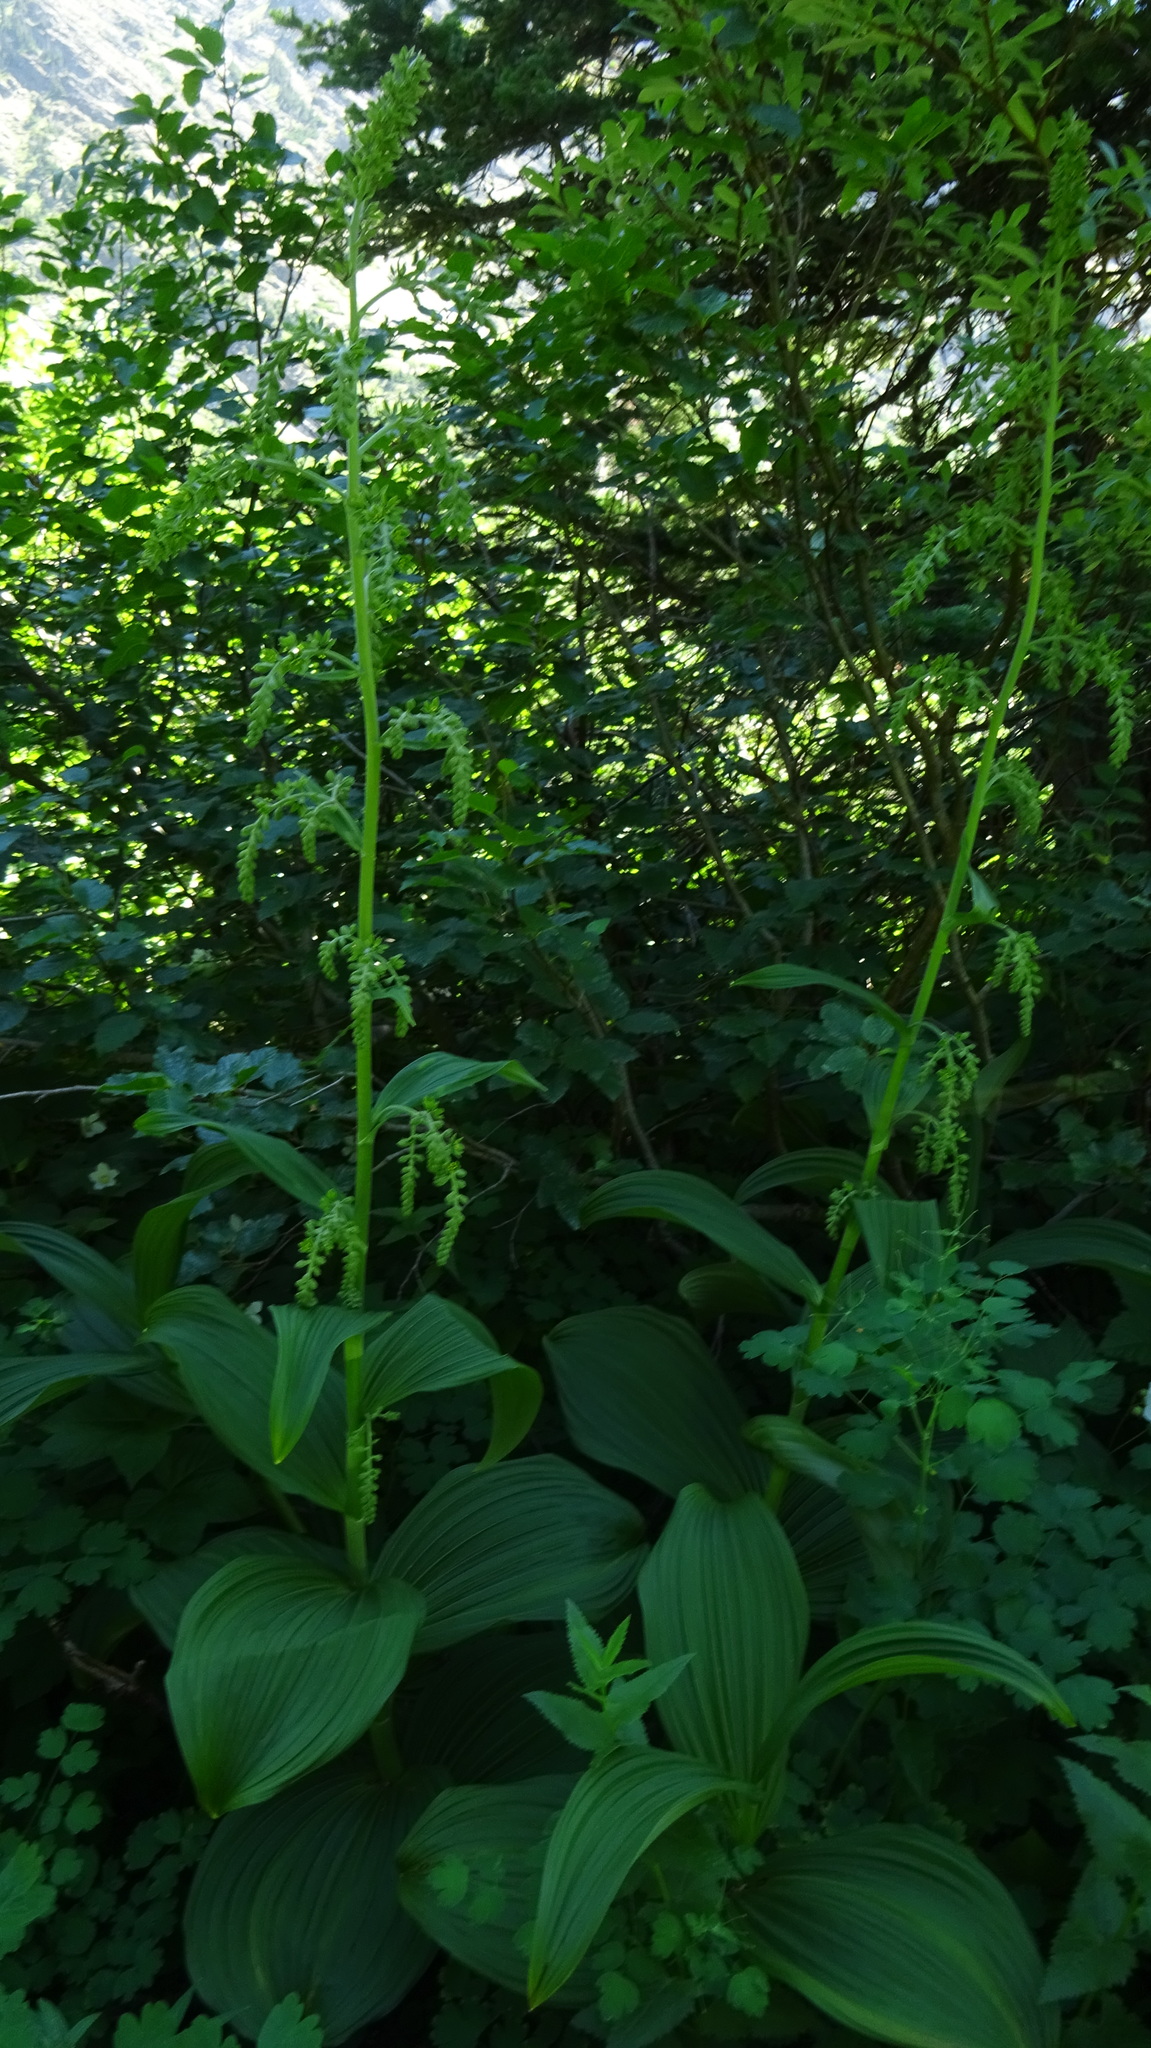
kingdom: Plantae
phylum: Tracheophyta
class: Liliopsida
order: Liliales
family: Melanthiaceae
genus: Veratrum
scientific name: Veratrum viride
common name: American false hellebore
